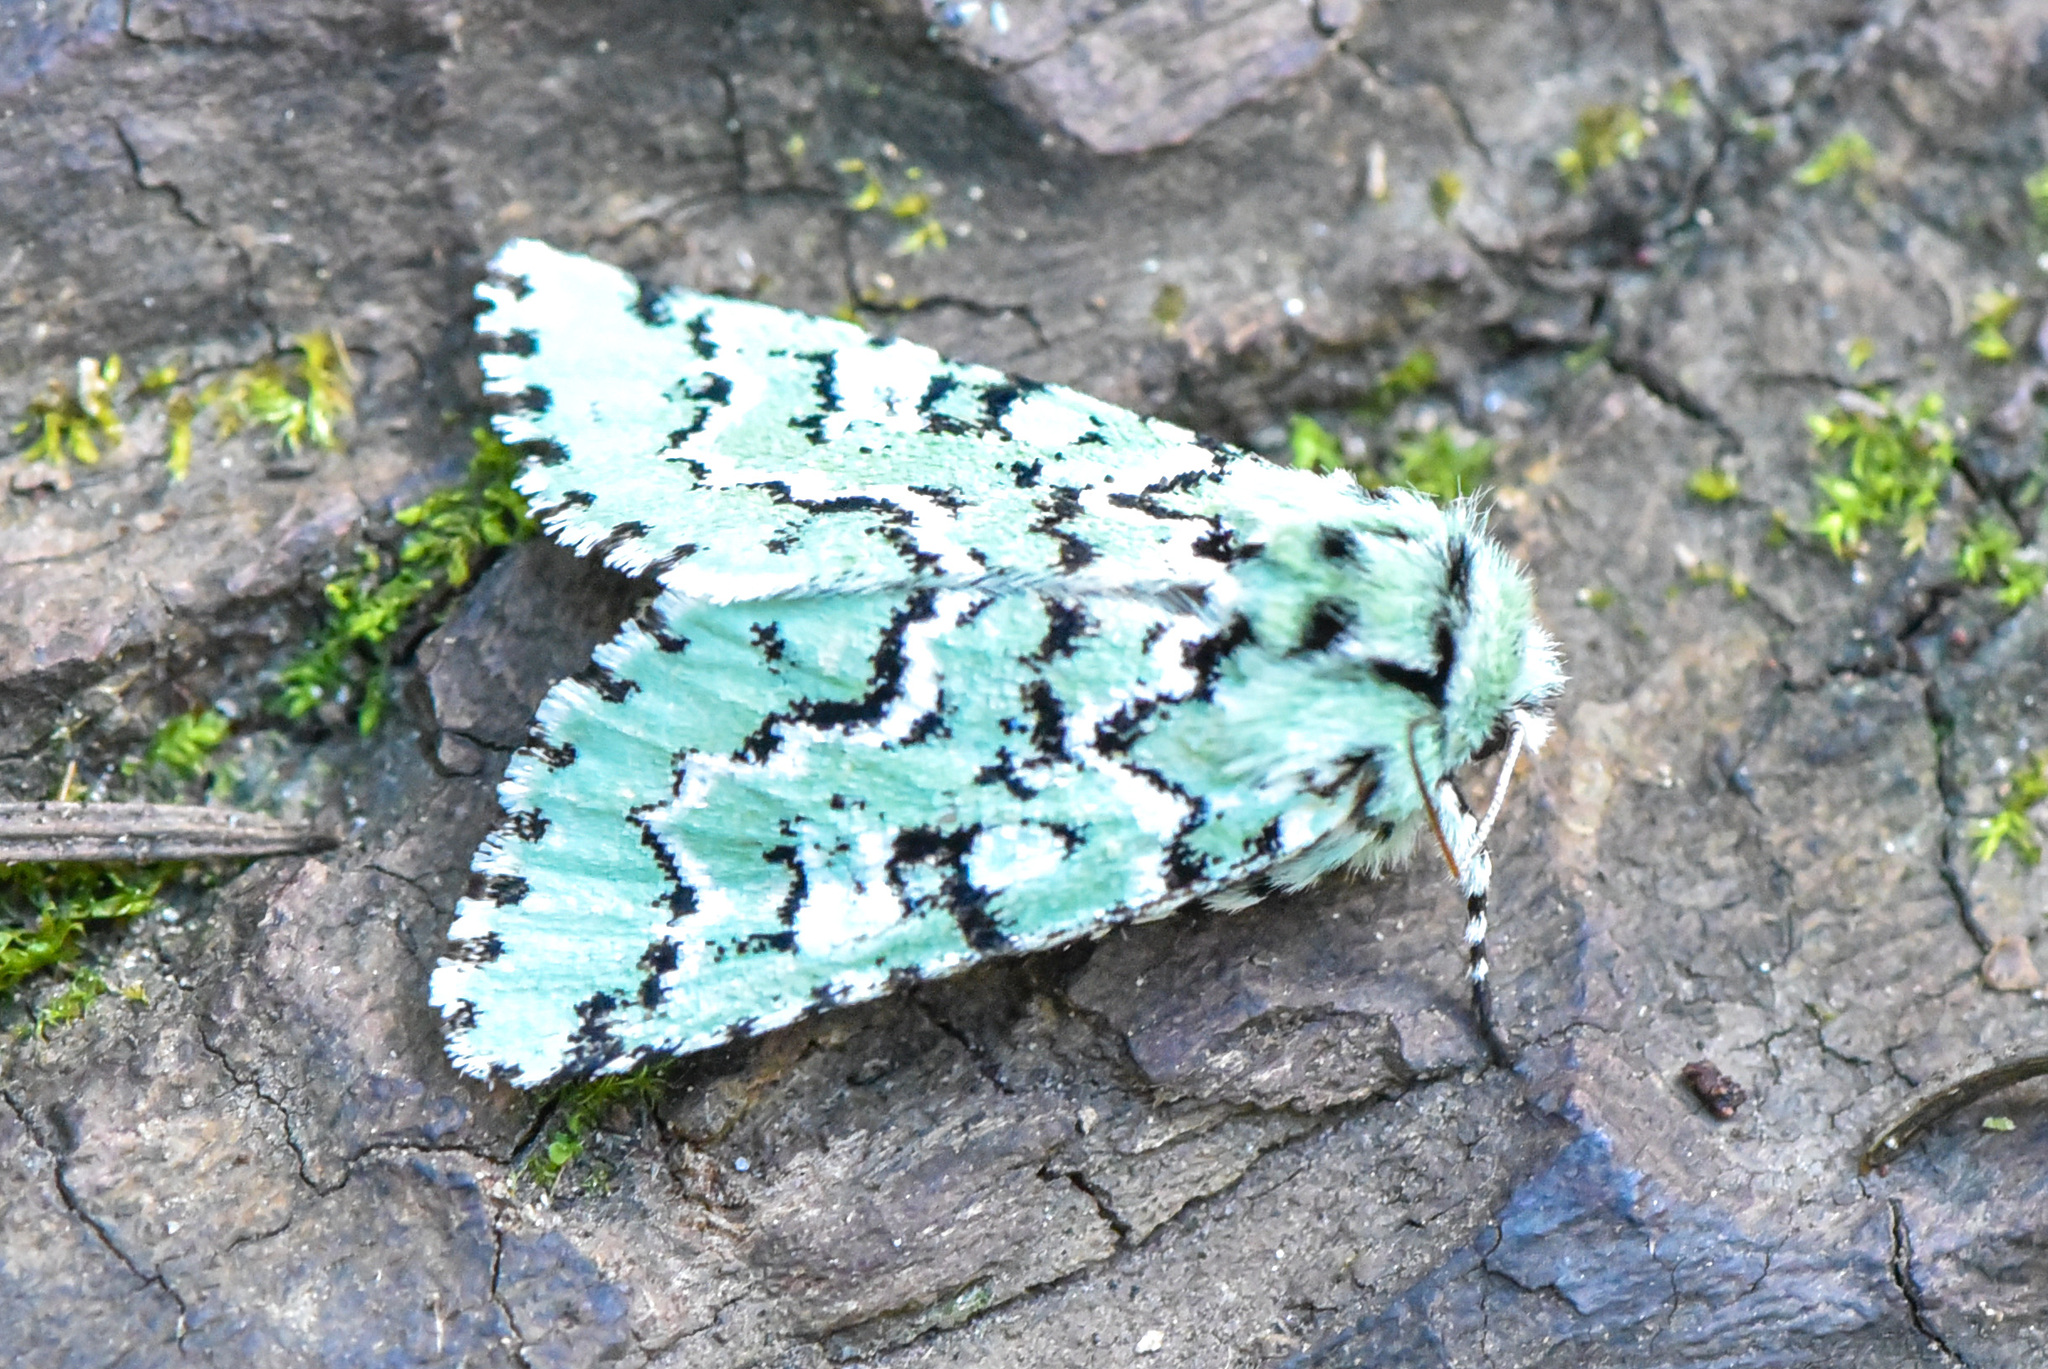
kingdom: Animalia
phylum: Arthropoda
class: Insecta
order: Lepidoptera
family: Noctuidae
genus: Feralia
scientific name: Feralia deceptiva
